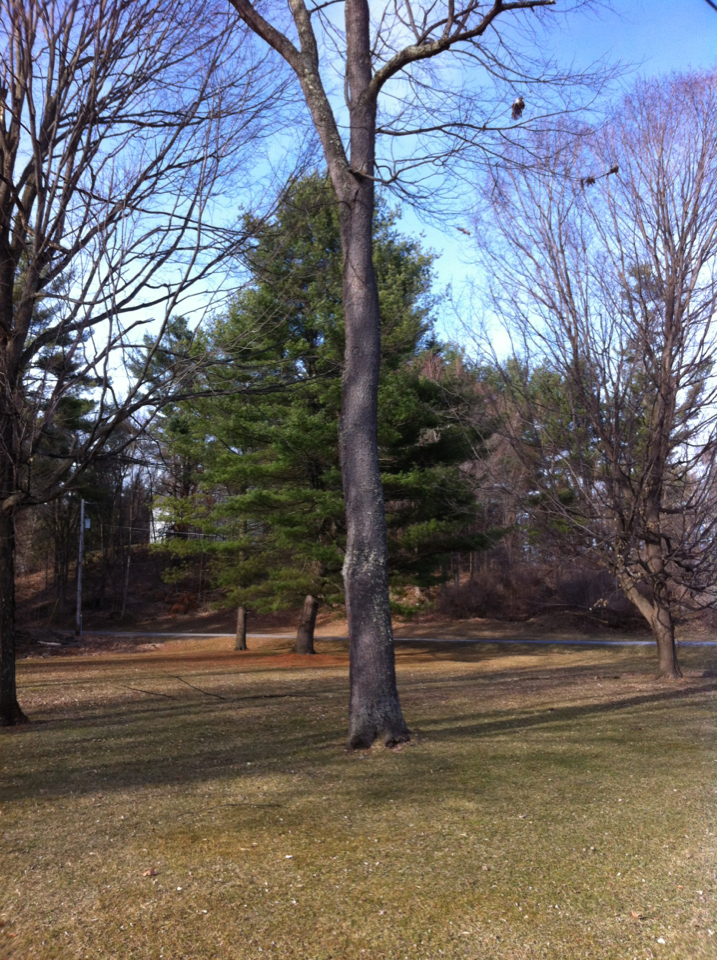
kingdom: Plantae
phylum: Tracheophyta
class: Magnoliopsida
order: Rosales
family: Rosaceae
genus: Prunus
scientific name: Prunus serotina
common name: Black cherry
